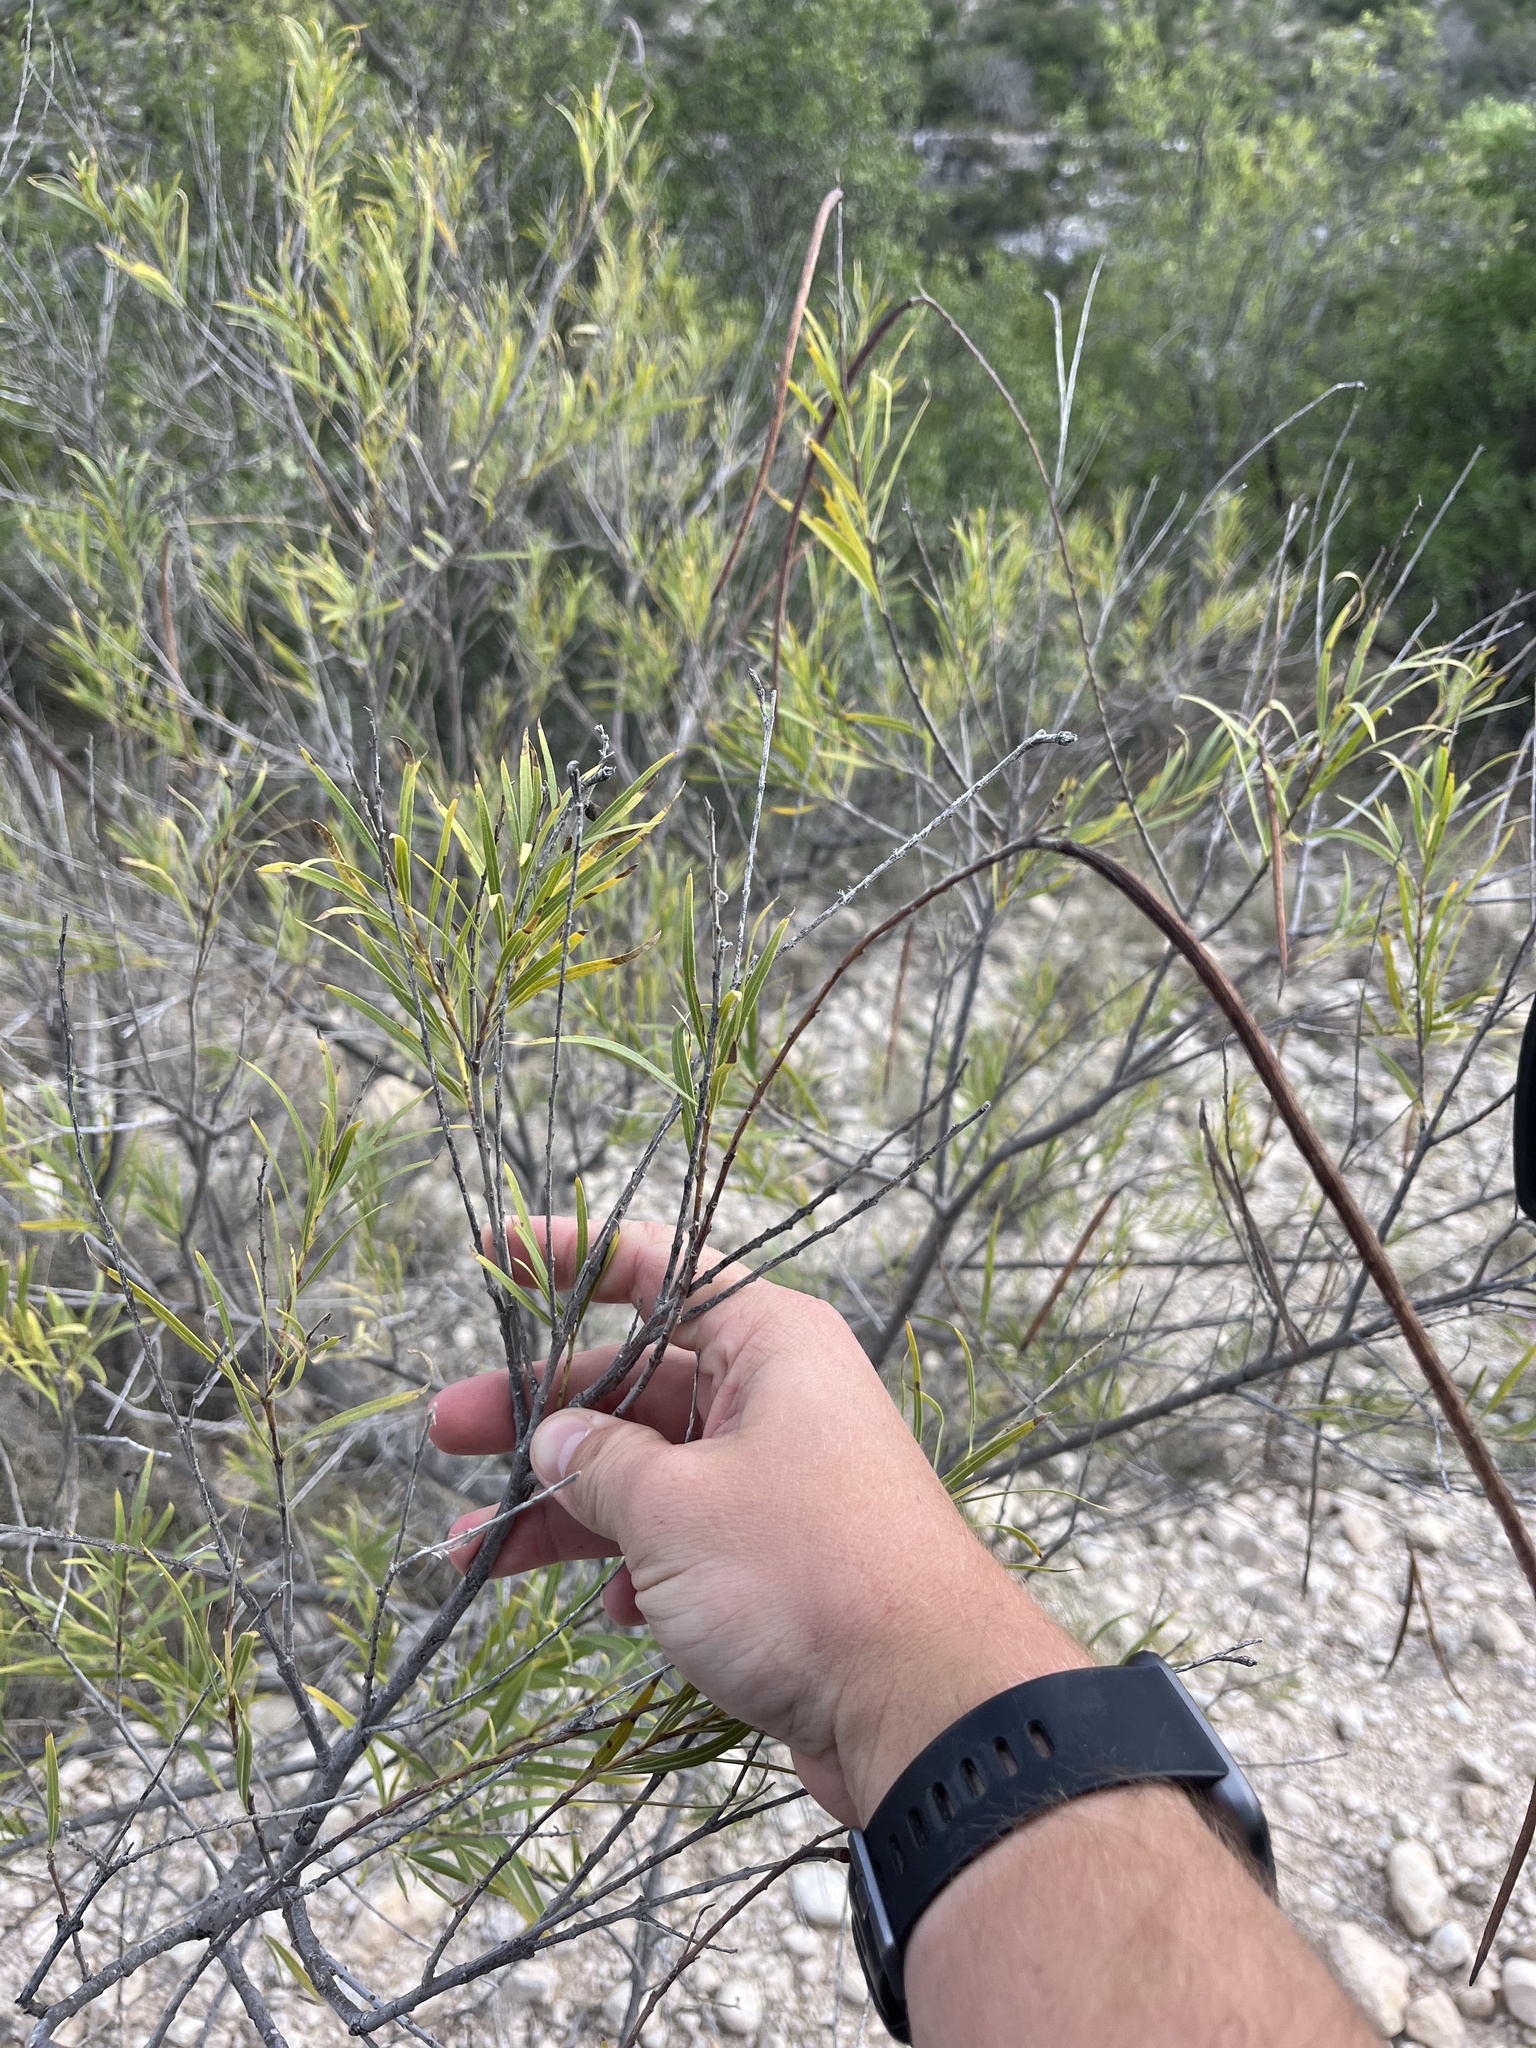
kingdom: Plantae
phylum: Tracheophyta
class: Magnoliopsida
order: Lamiales
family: Bignoniaceae
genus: Chilopsis
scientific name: Chilopsis linearis
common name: Desert-willow
